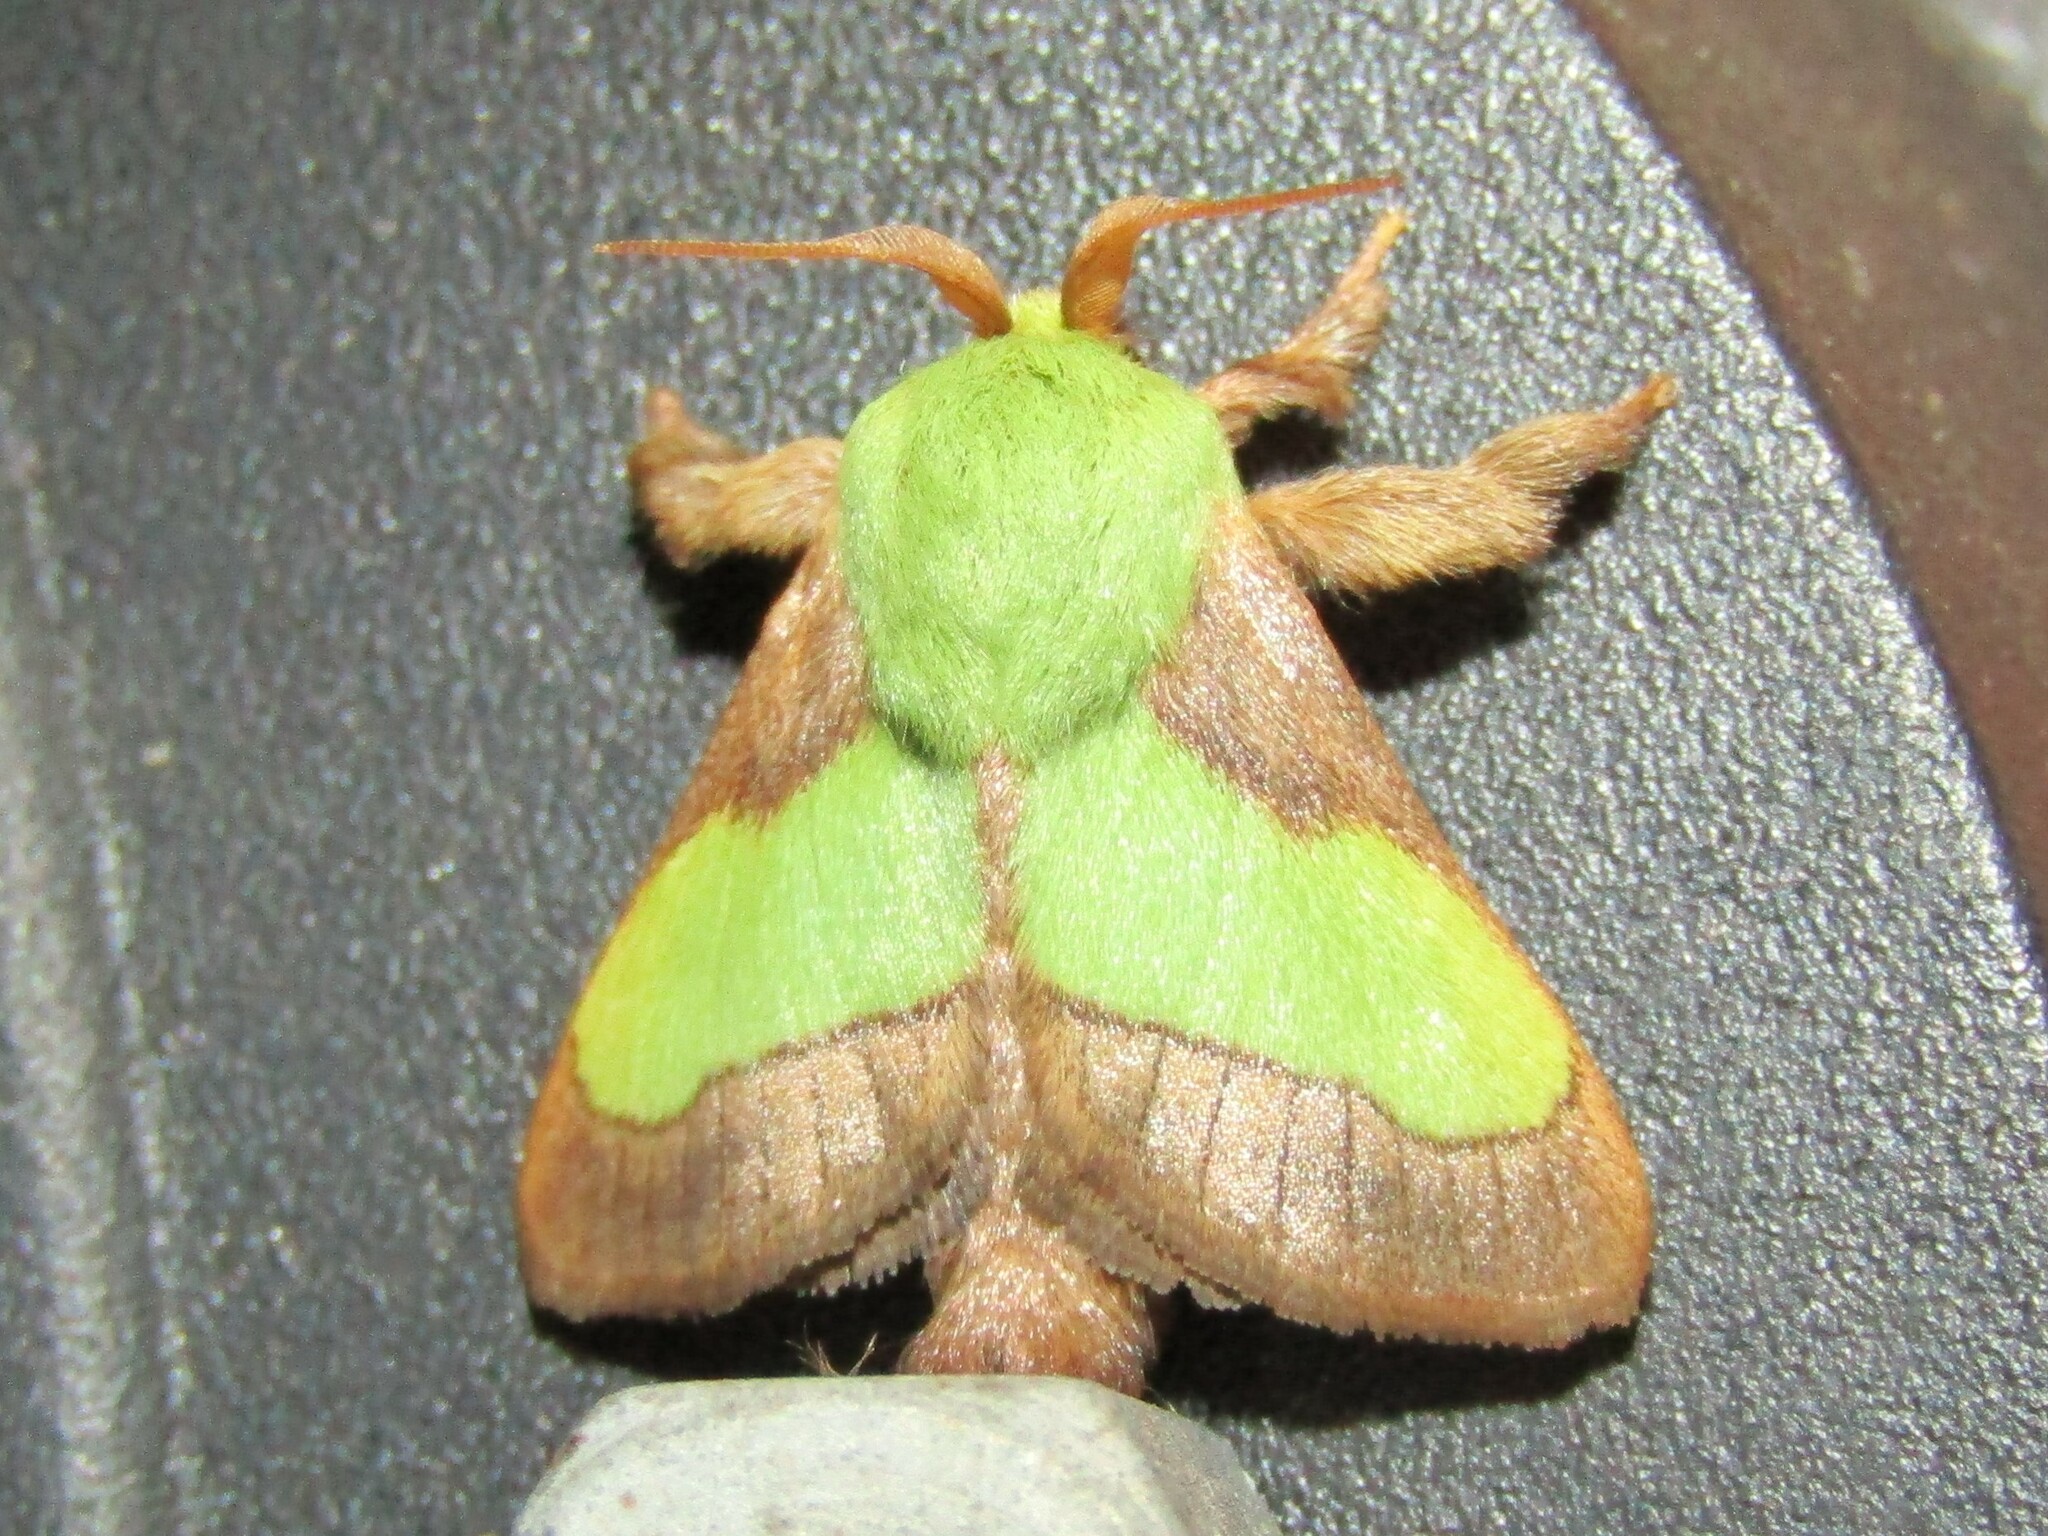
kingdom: Animalia
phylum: Arthropoda
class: Insecta
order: Lepidoptera
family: Limacodidae
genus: Parasa
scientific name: Parasa chloris
